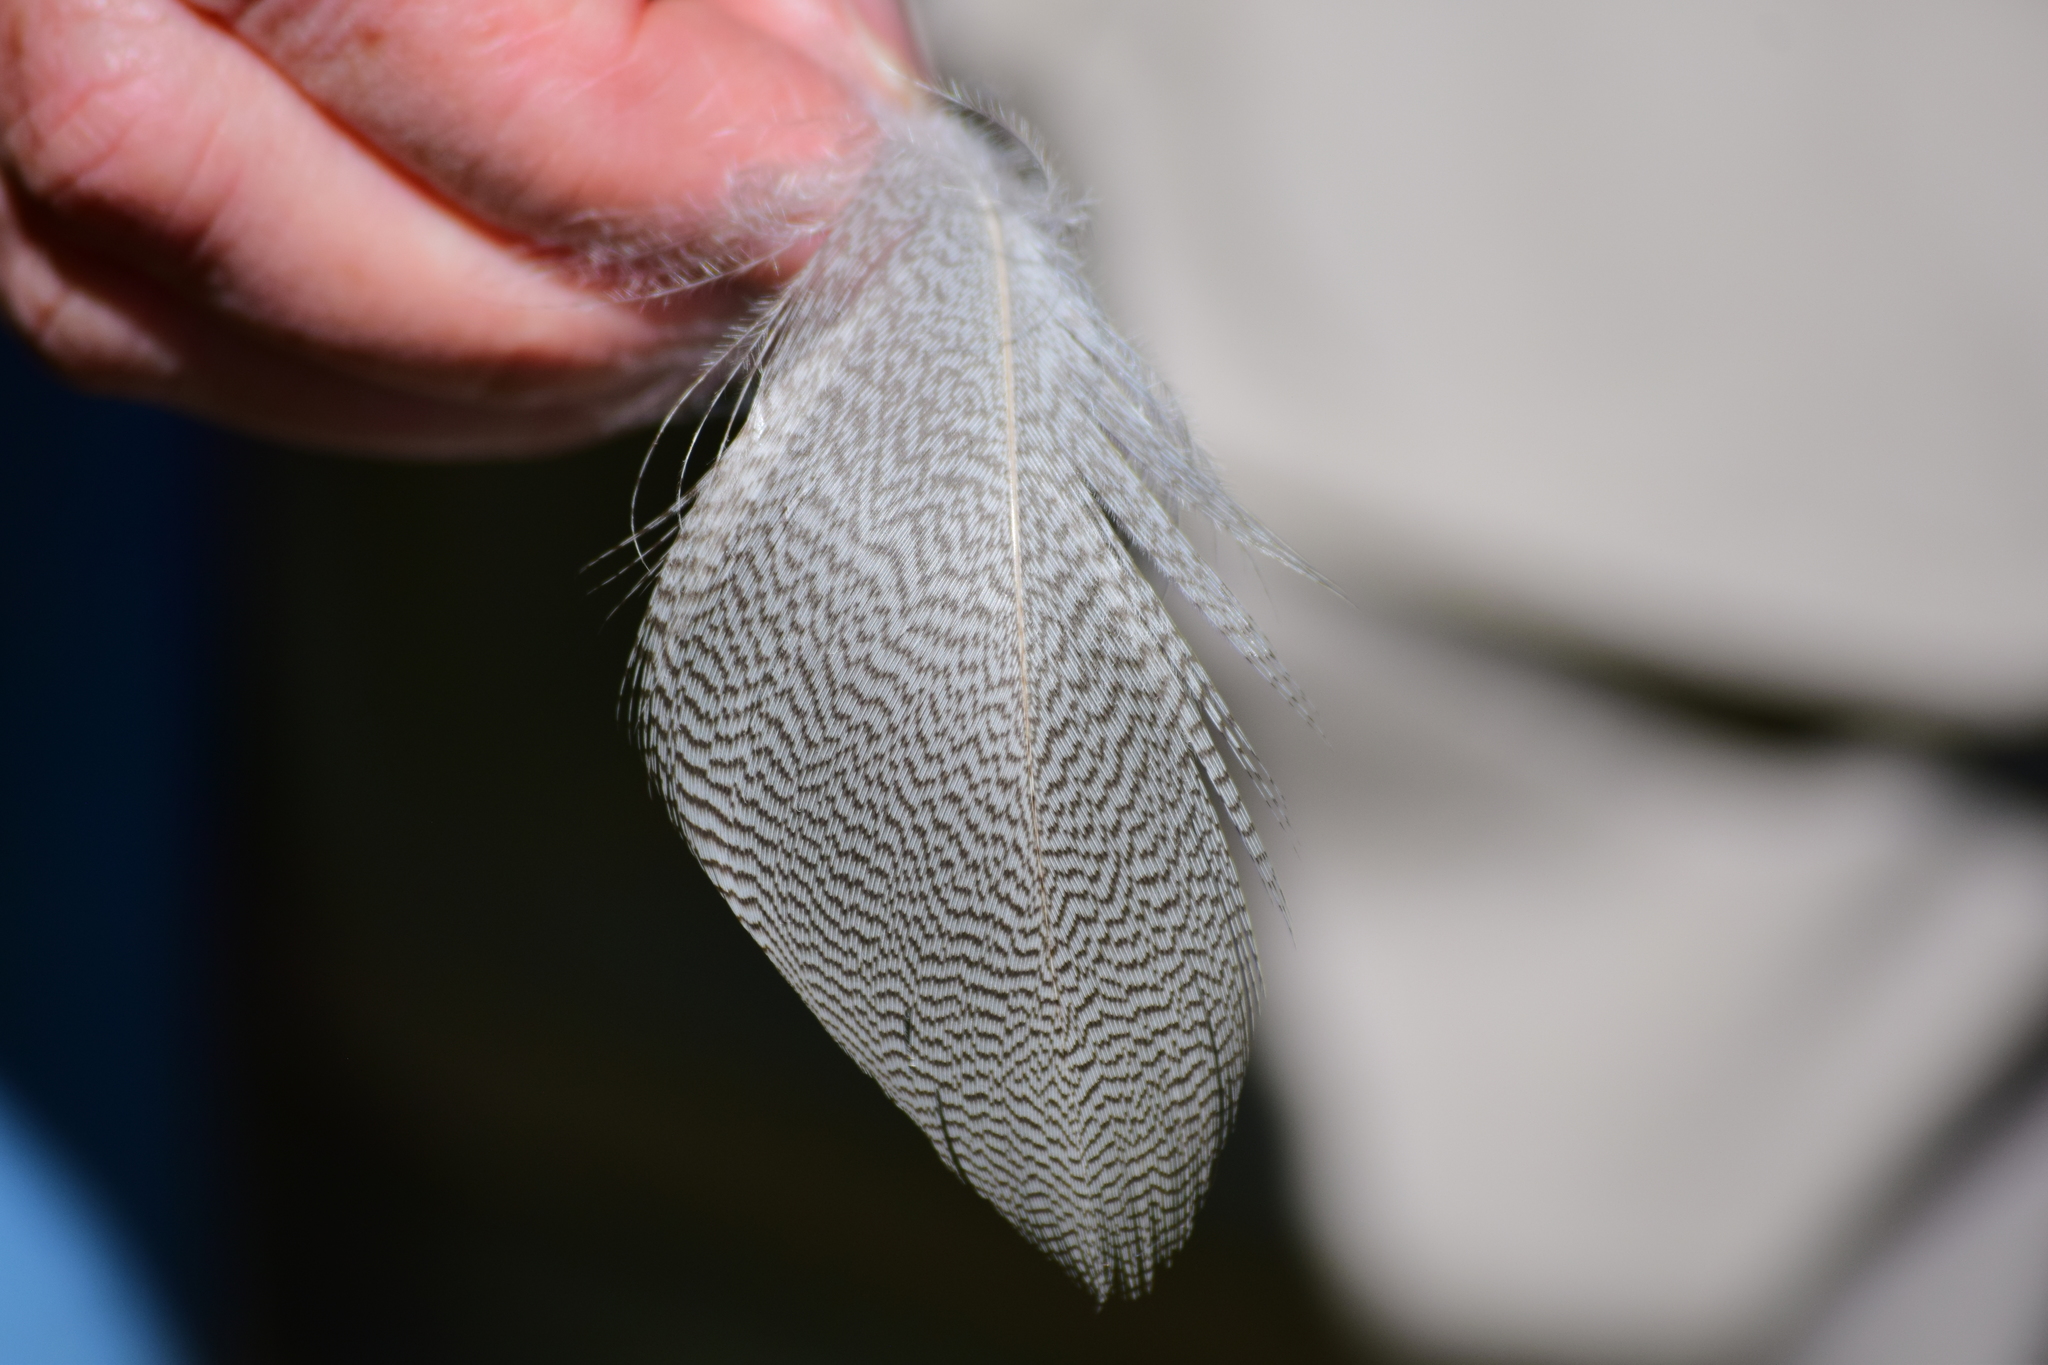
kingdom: Animalia
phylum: Chordata
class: Aves
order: Anseriformes
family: Anatidae
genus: Anas
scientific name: Anas platyrhynchos
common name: Mallard
